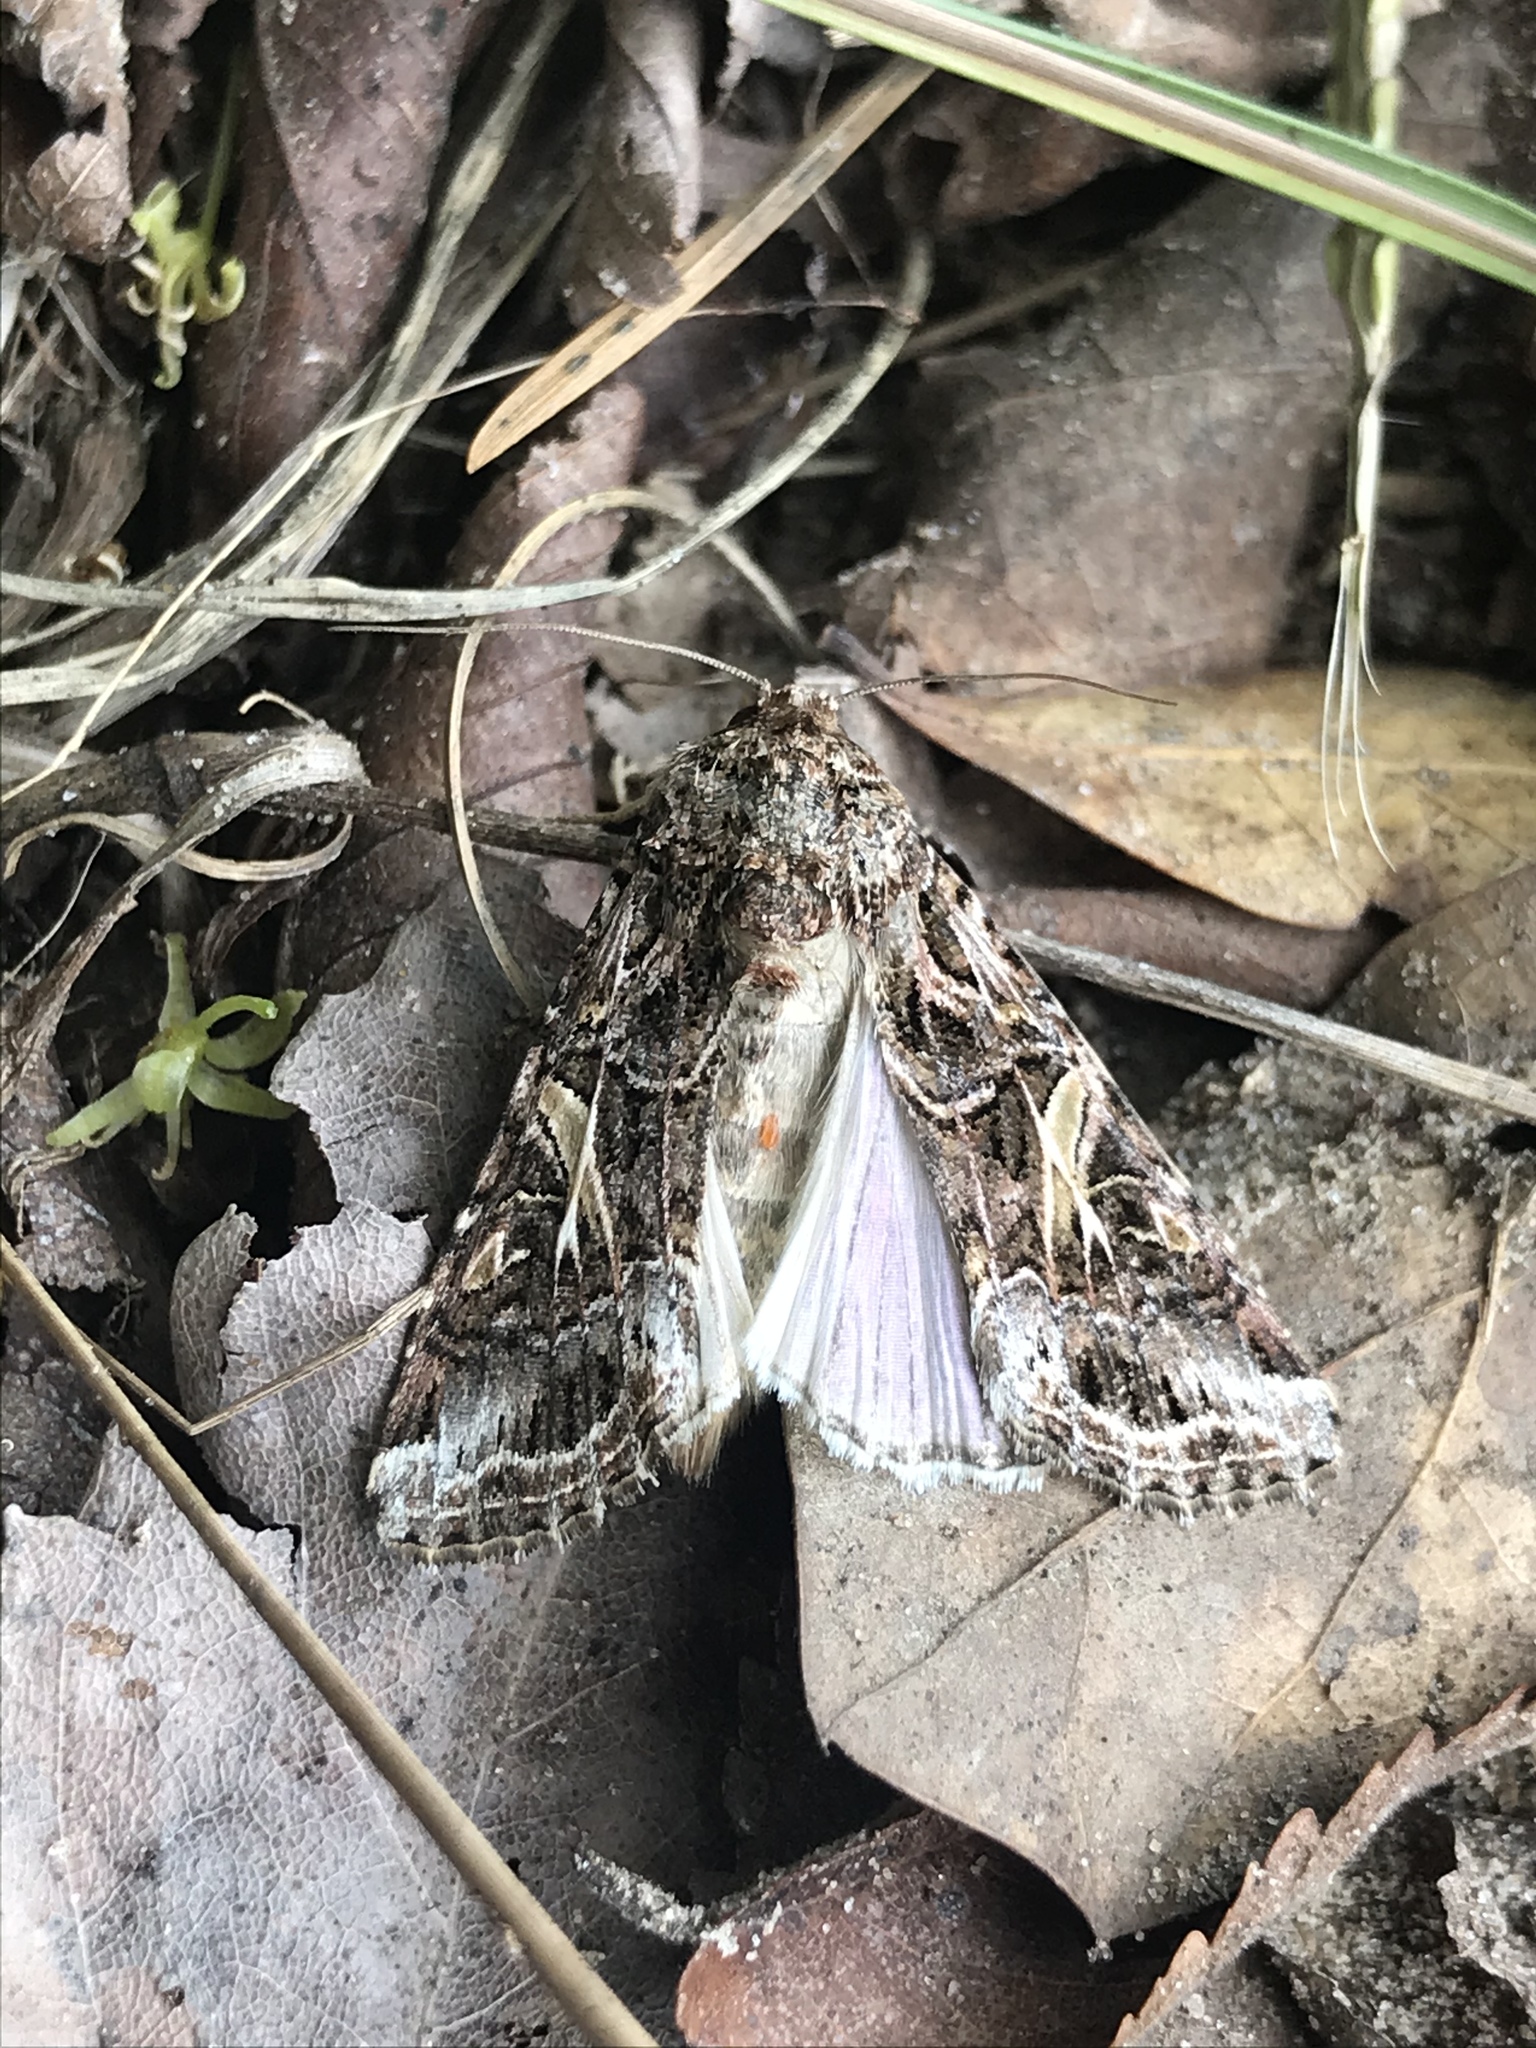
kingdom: Animalia
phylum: Arthropoda
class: Insecta
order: Lepidoptera
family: Noctuidae
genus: Spodoptera
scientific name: Spodoptera ornithogalli
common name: Yellow-striped armyworm
